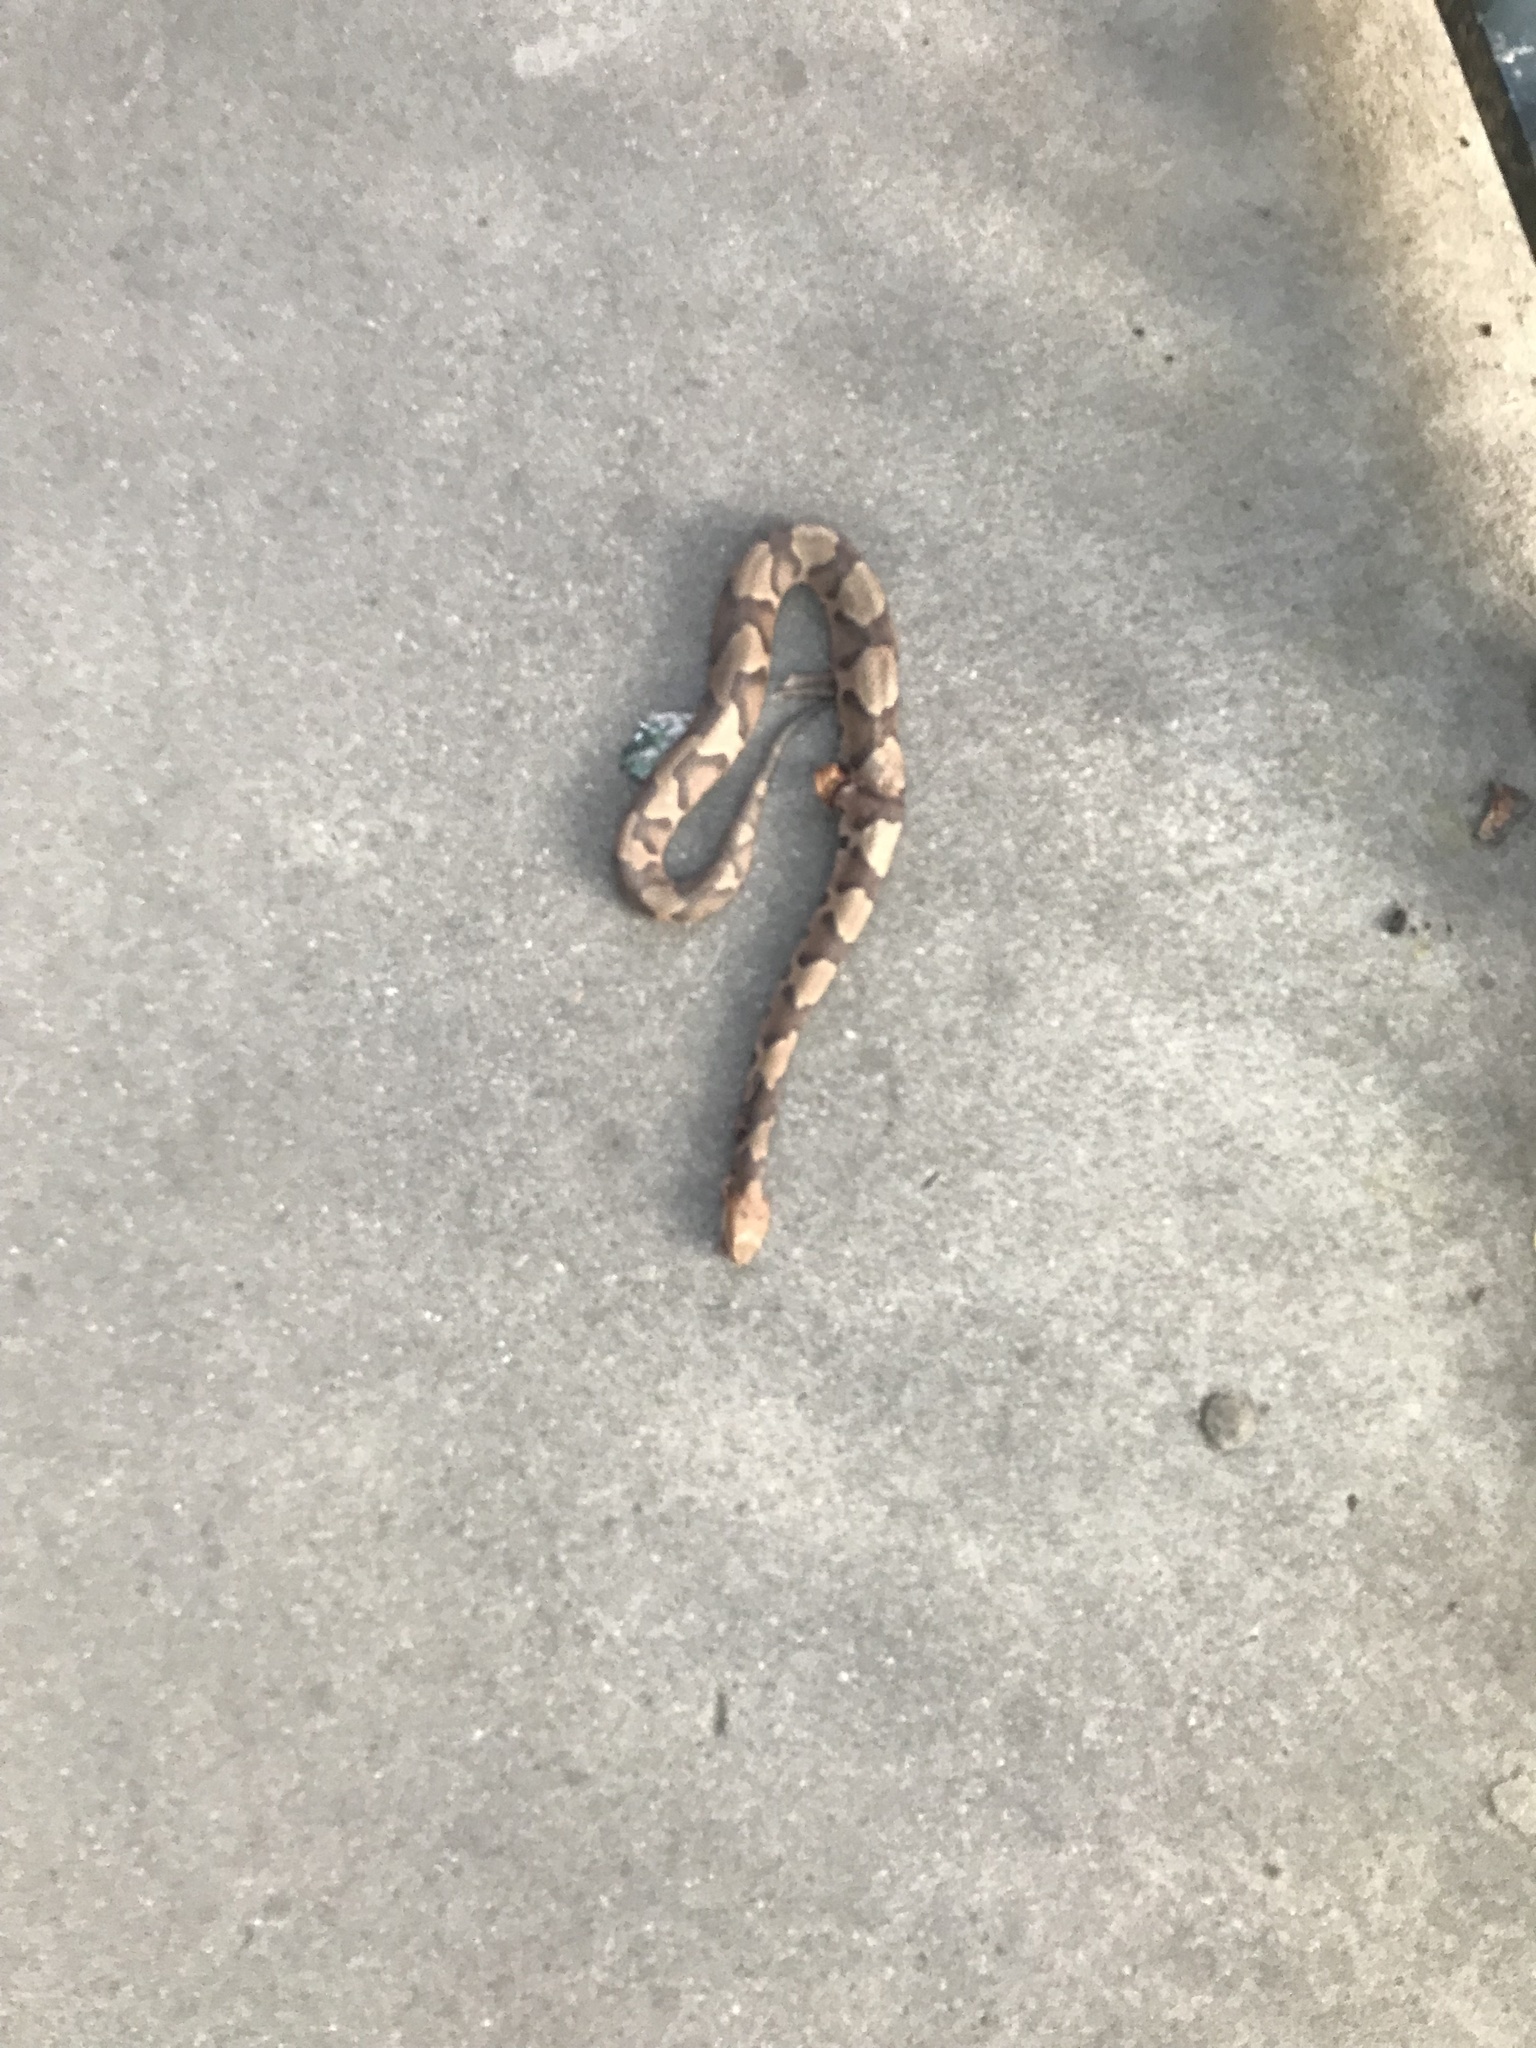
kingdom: Animalia
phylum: Chordata
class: Squamata
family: Viperidae
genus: Agkistrodon
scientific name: Agkistrodon contortrix
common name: Northern copperhead
